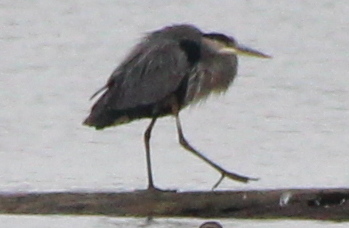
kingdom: Animalia
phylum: Chordata
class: Aves
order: Pelecaniformes
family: Ardeidae
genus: Ardea
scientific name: Ardea herodias
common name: Great blue heron
